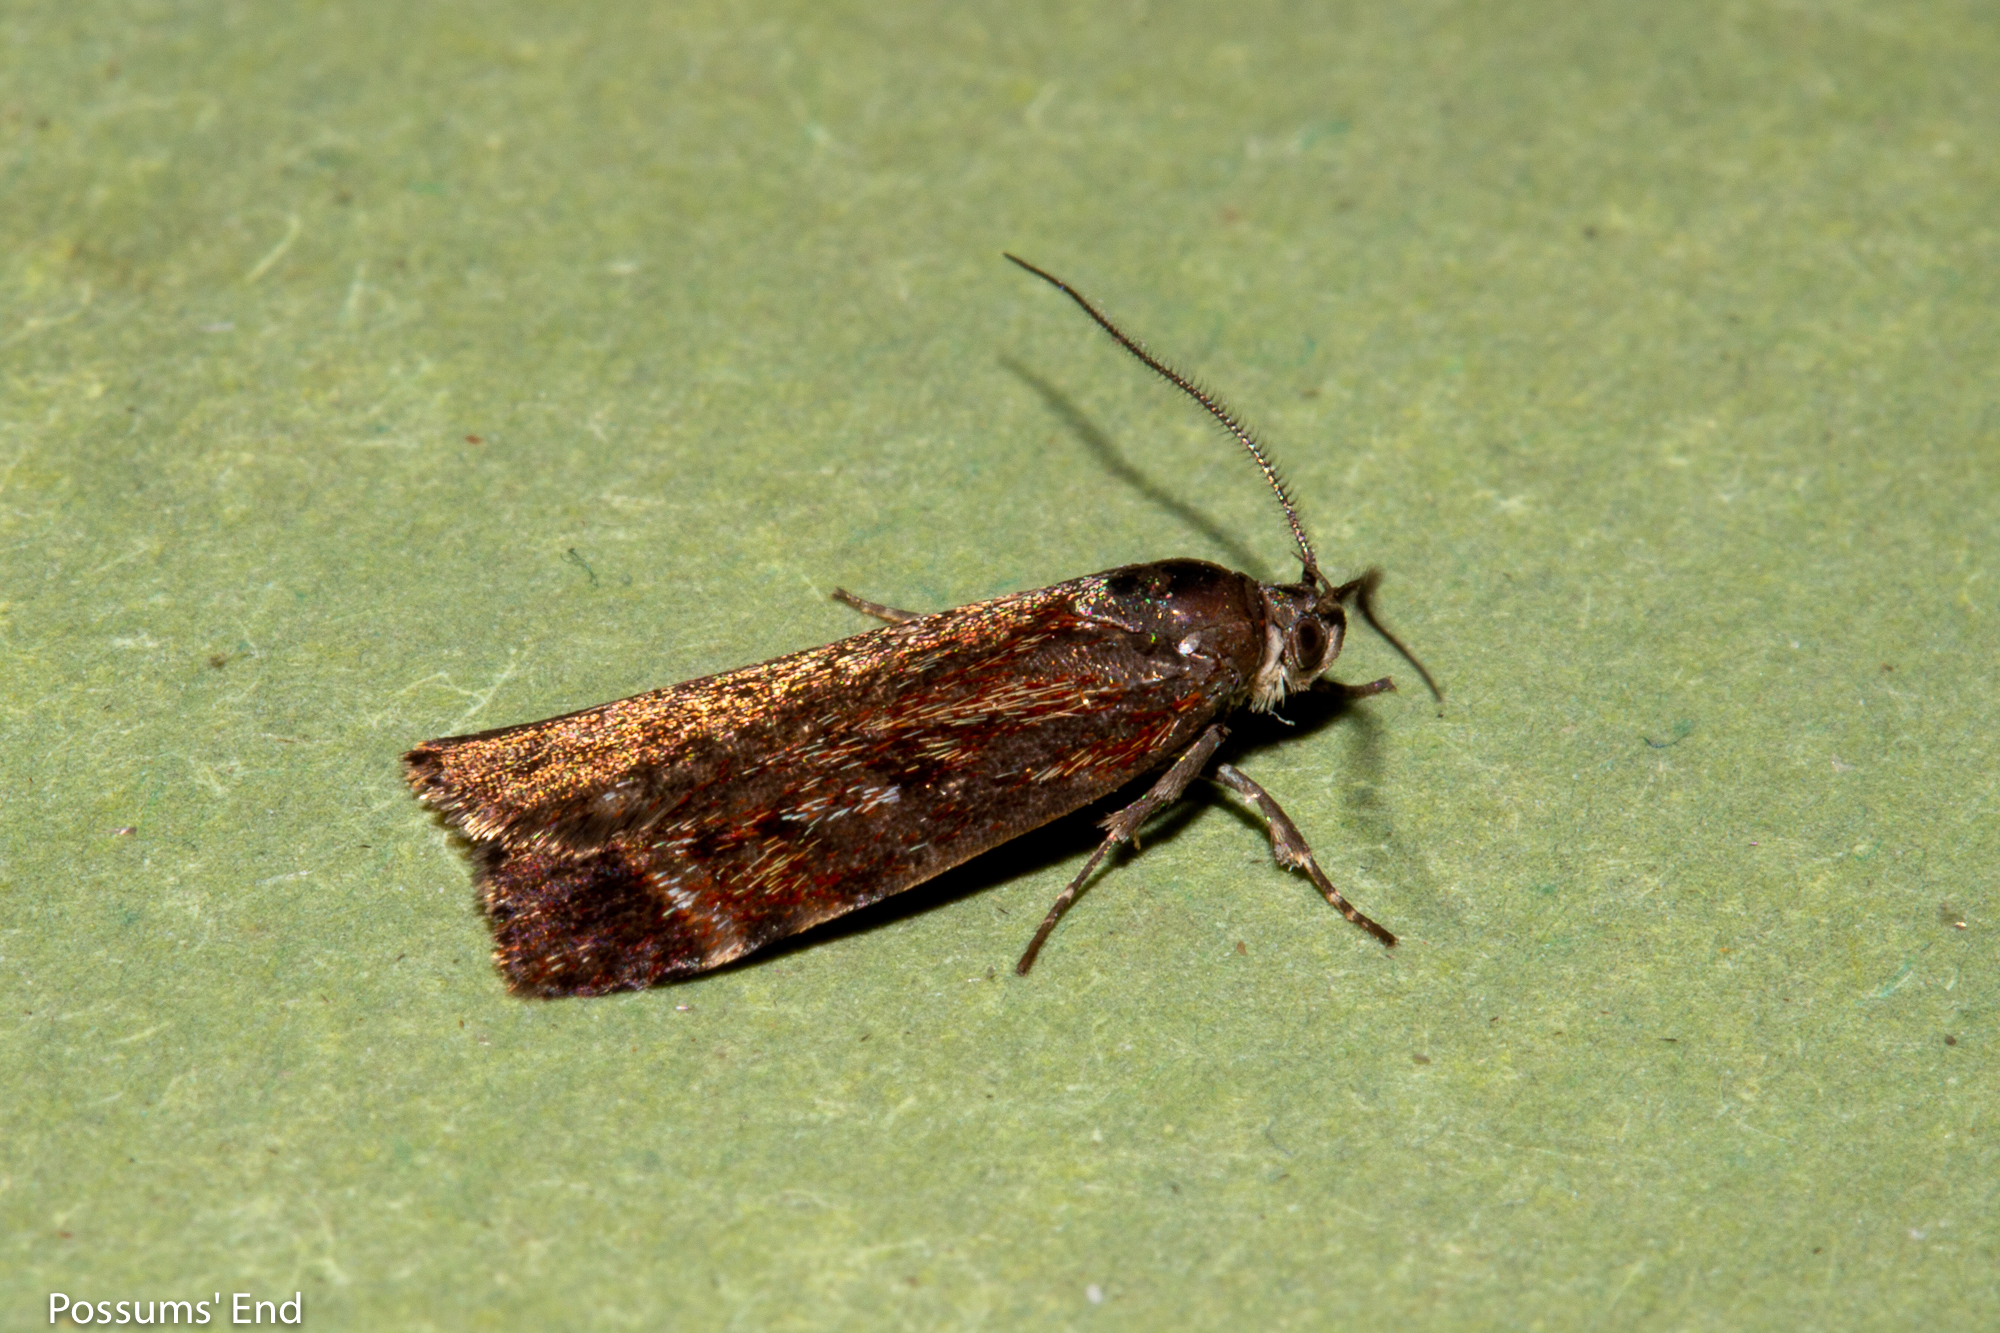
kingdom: Animalia
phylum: Arthropoda
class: Insecta
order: Lepidoptera
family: Oecophoridae
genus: Hierodoris
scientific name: Hierodoris
